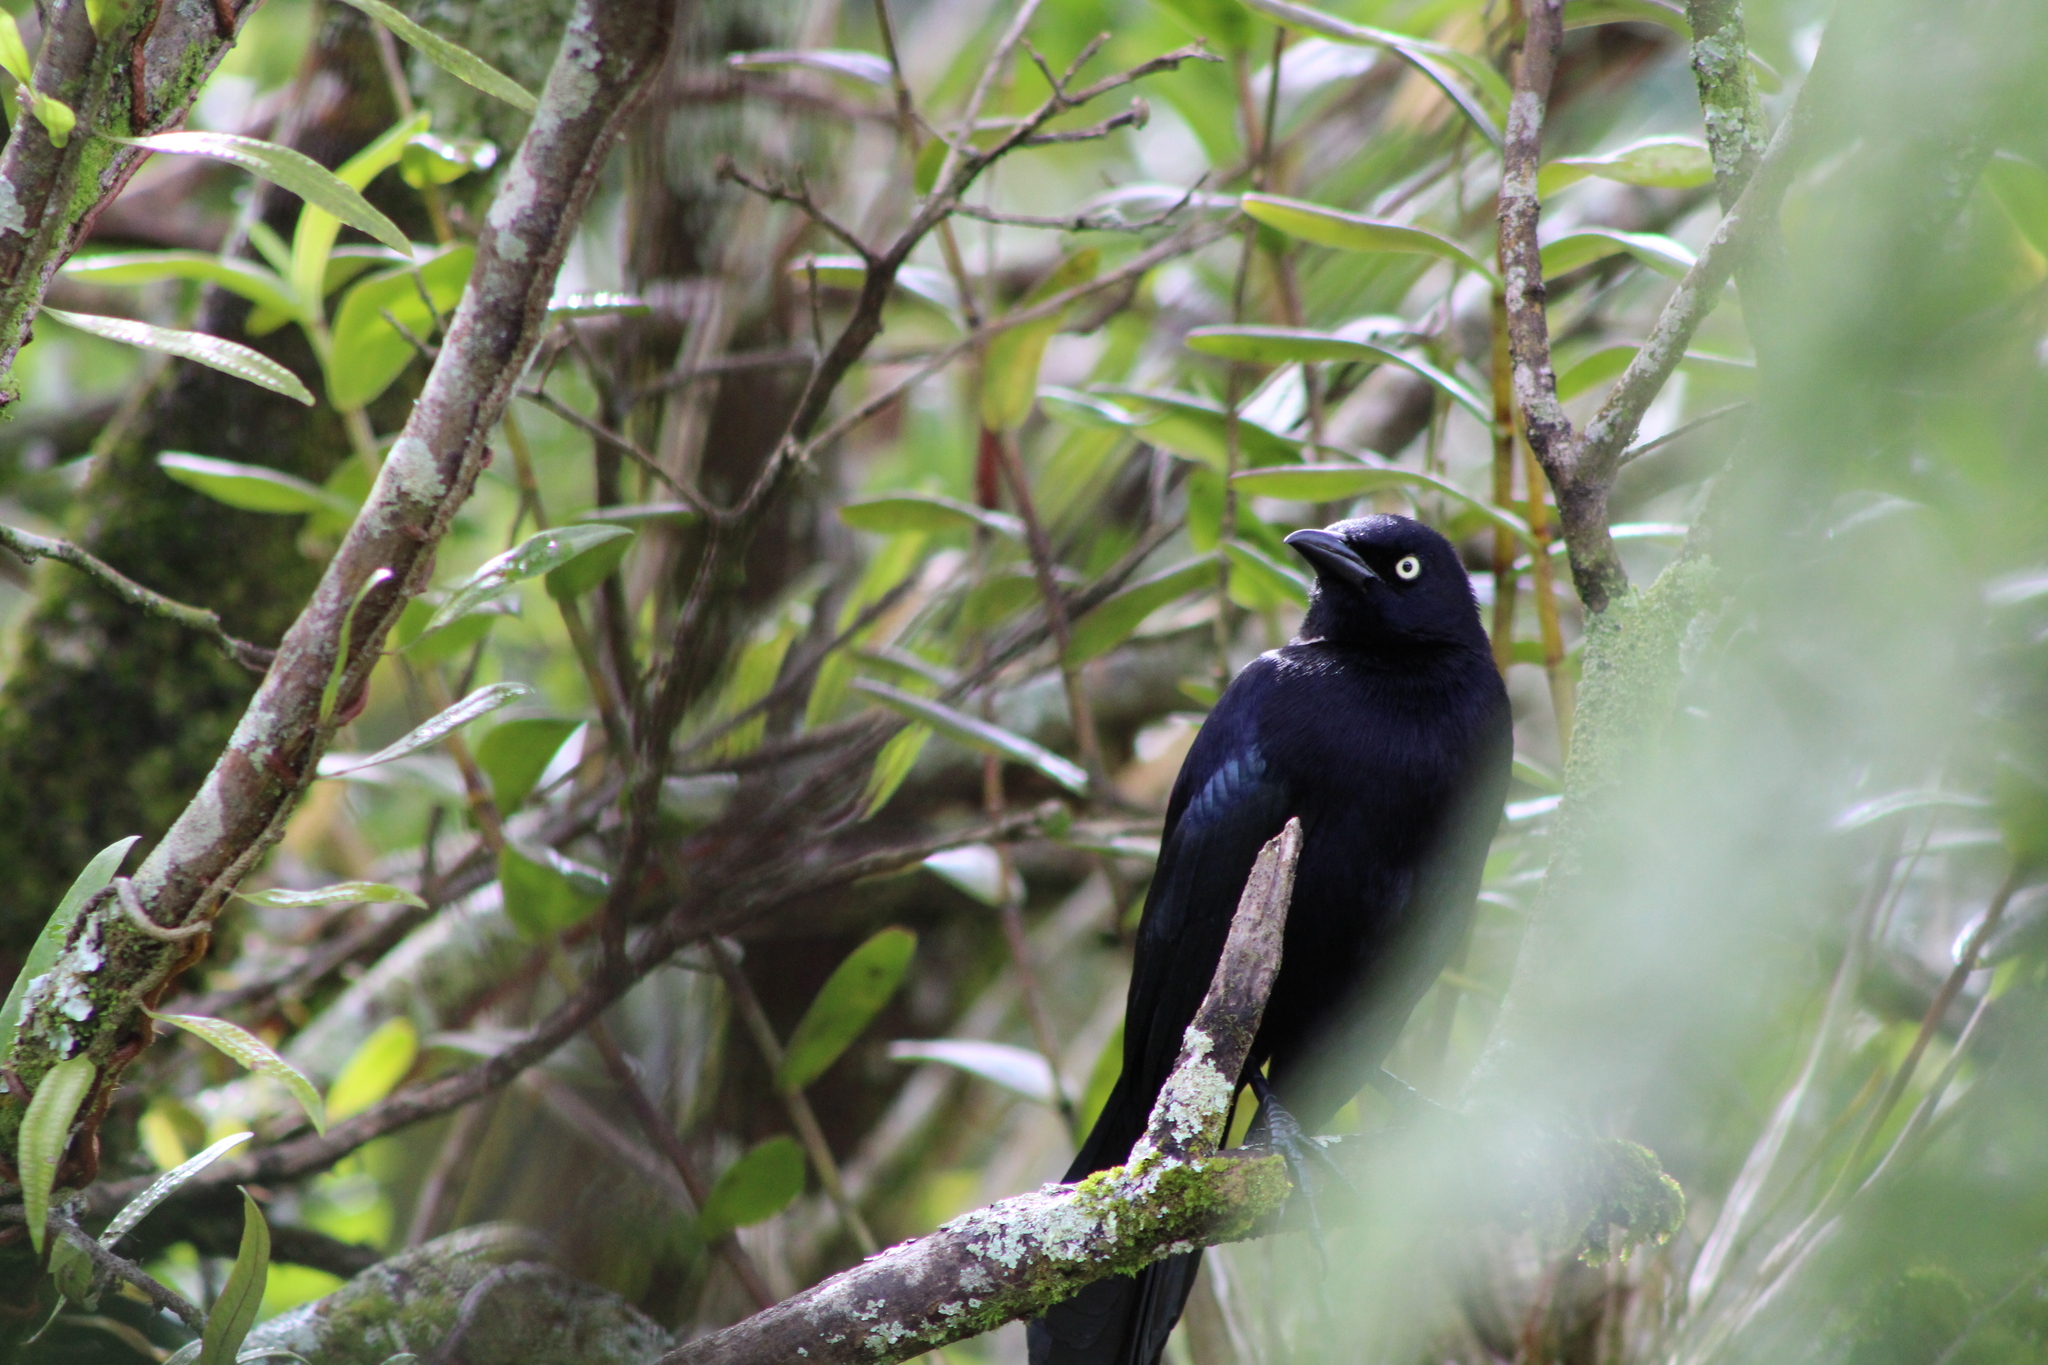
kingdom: Animalia
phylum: Chordata
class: Aves
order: Passeriformes
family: Icteridae
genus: Quiscalus
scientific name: Quiscalus lugubris
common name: Carib grackle
